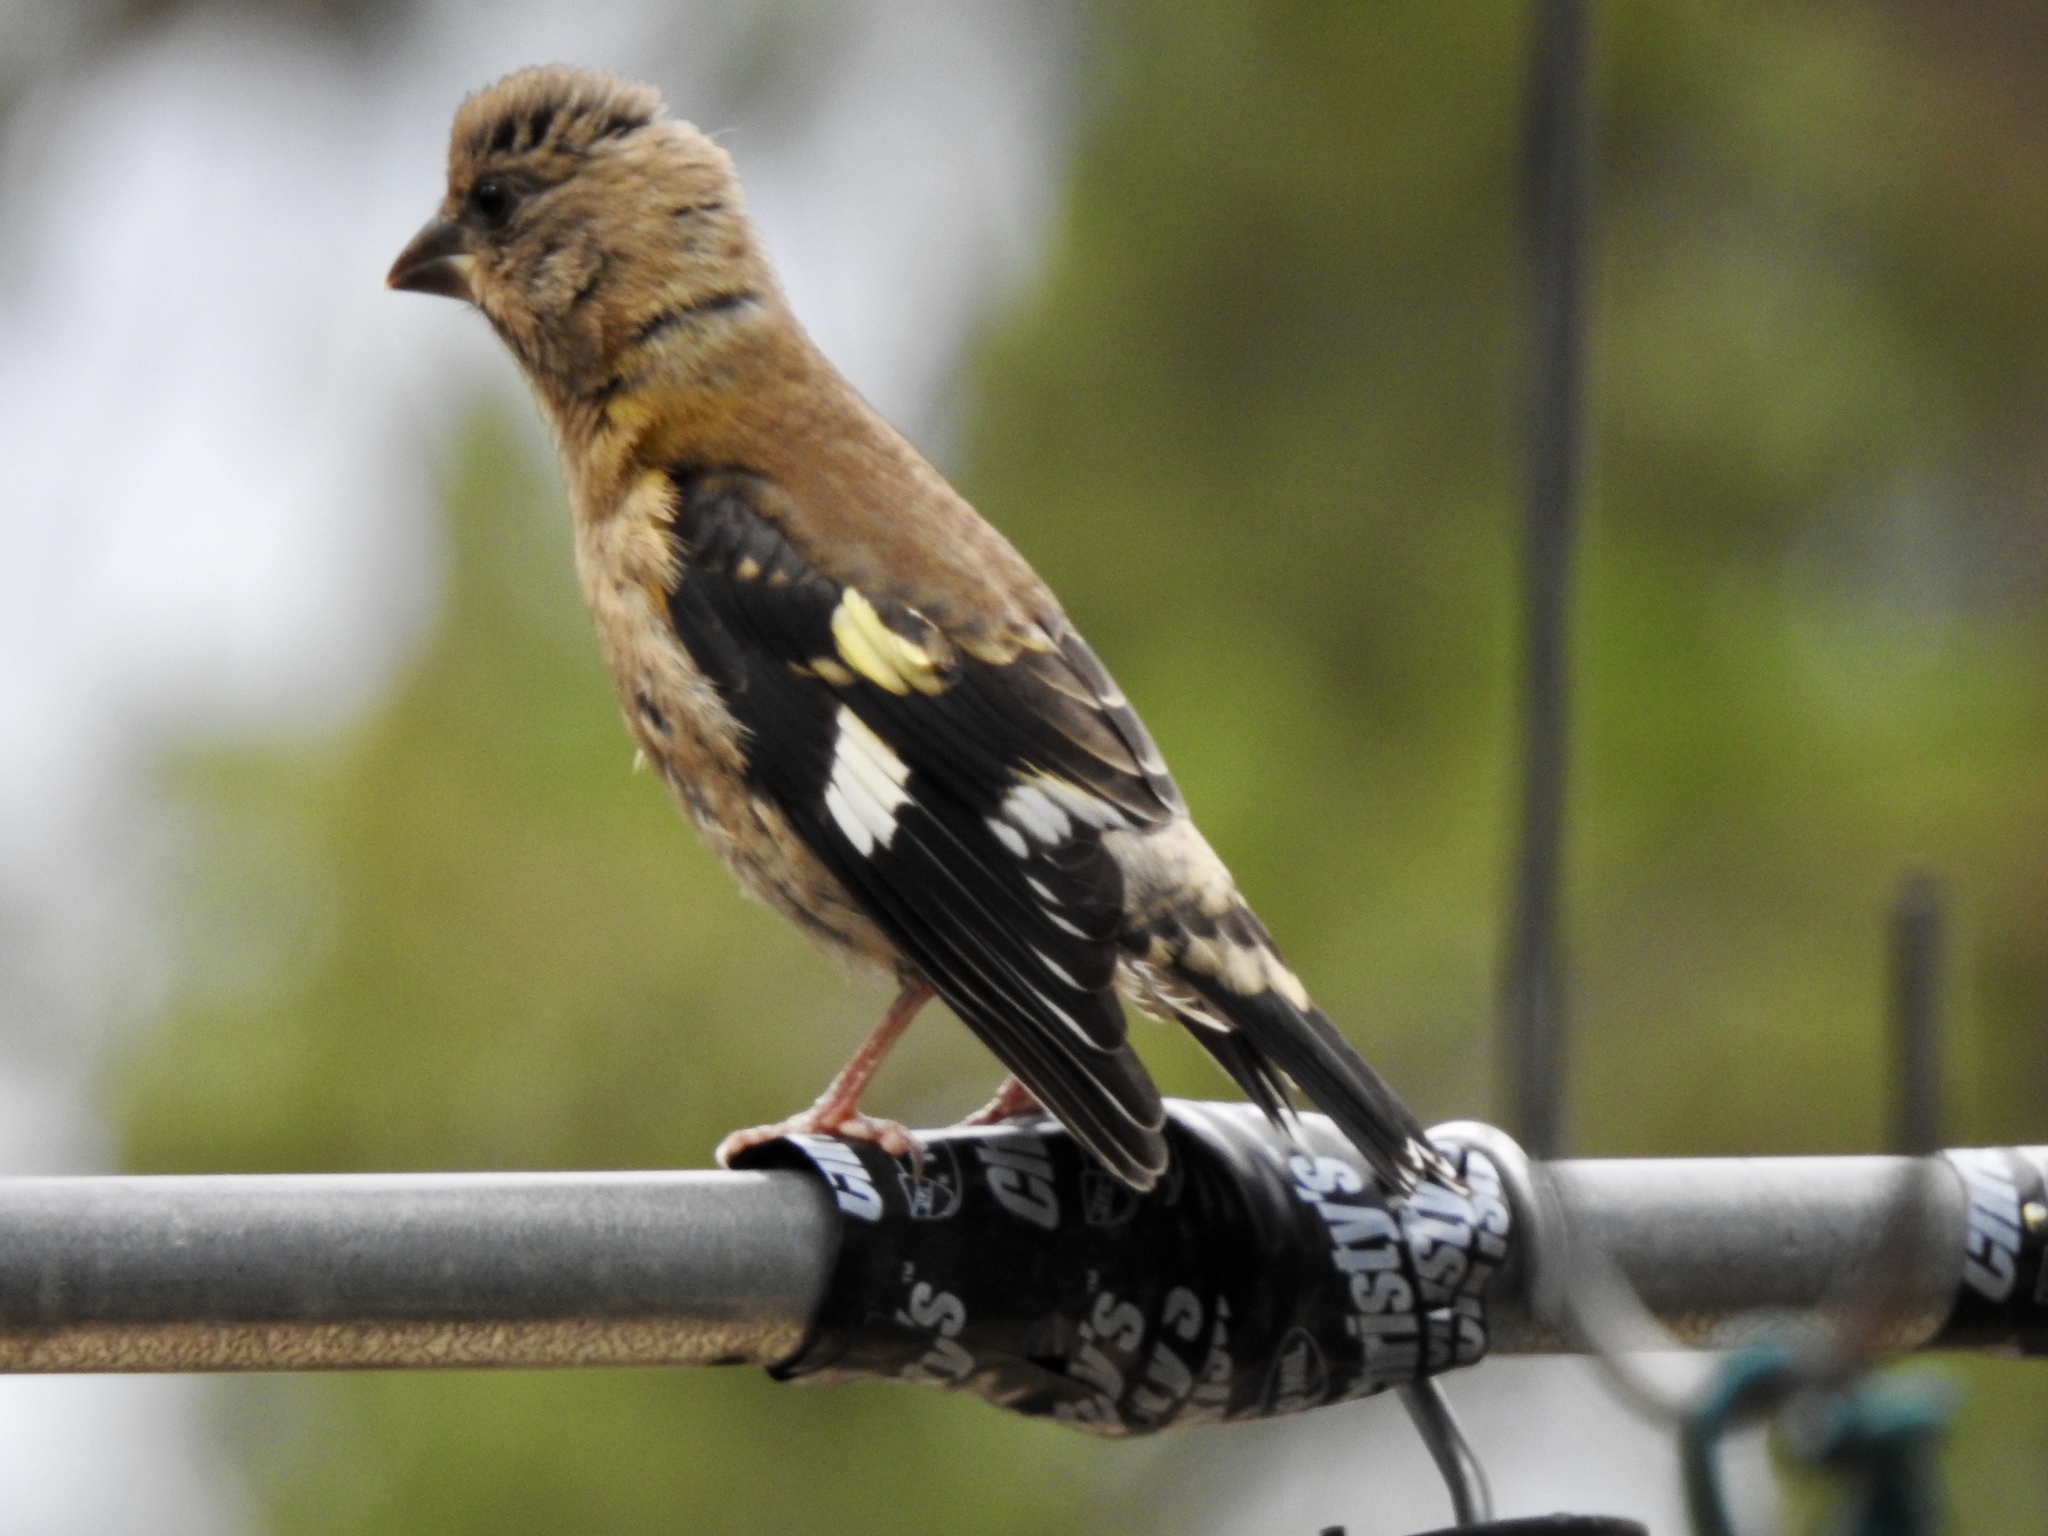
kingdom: Animalia
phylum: Chordata
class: Aves
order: Passeriformes
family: Fringillidae
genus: Hesperiphona
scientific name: Hesperiphona vespertina
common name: Evening grosbeak
